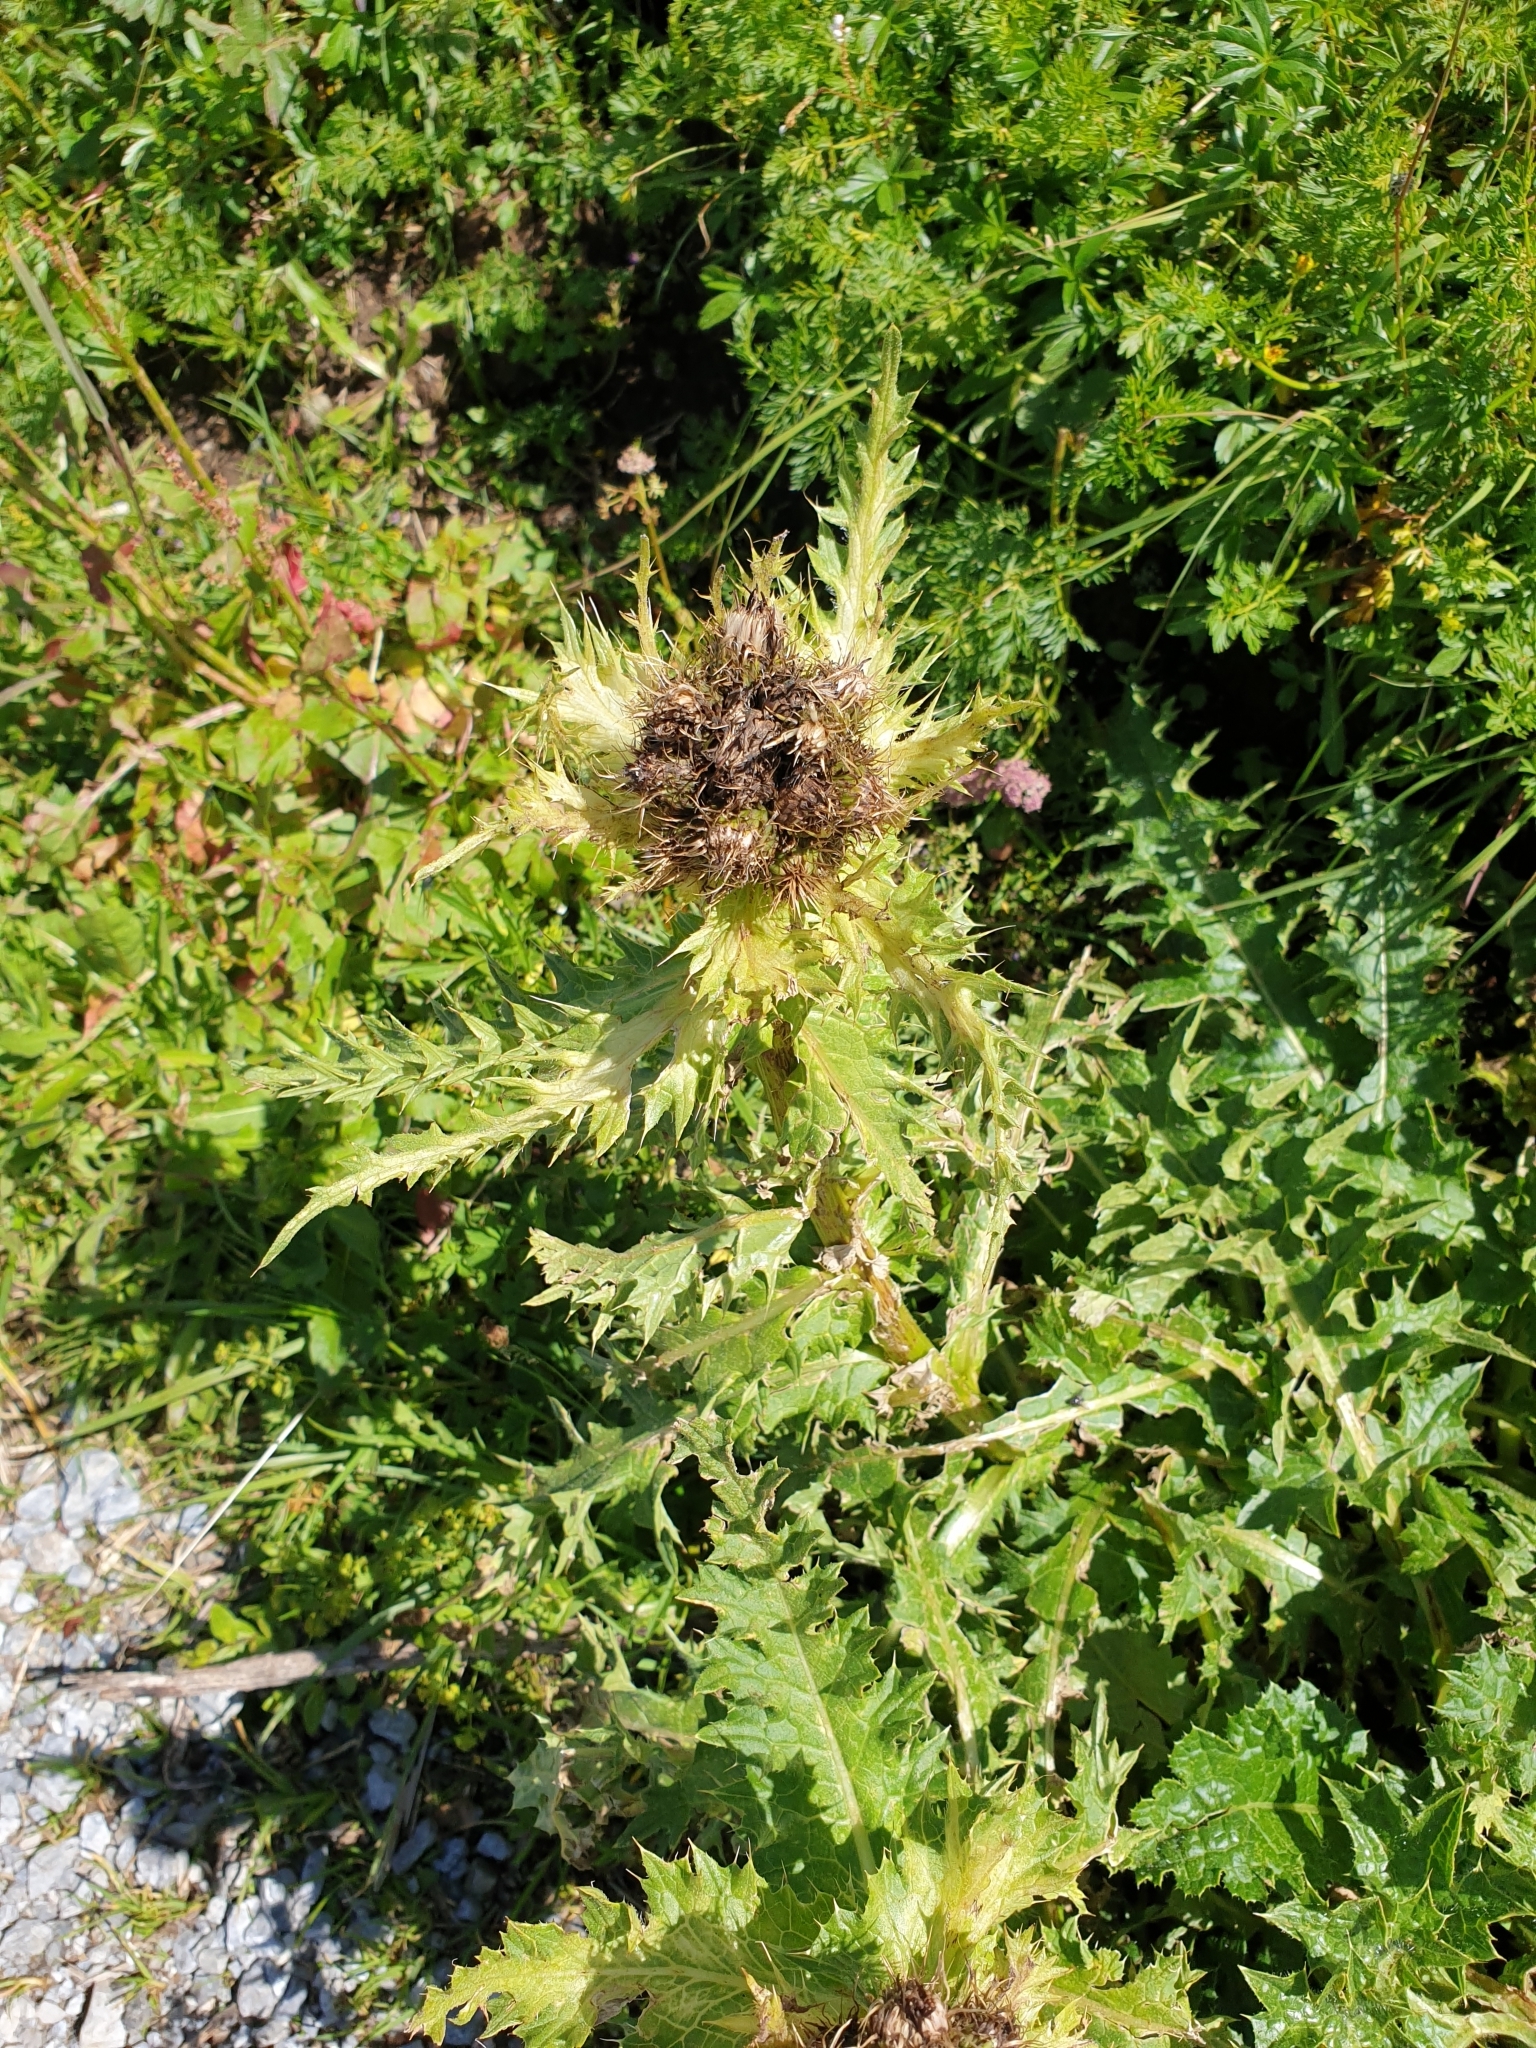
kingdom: Plantae
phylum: Tracheophyta
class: Magnoliopsida
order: Asterales
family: Asteraceae
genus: Cirsium
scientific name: Cirsium spinosissimum
